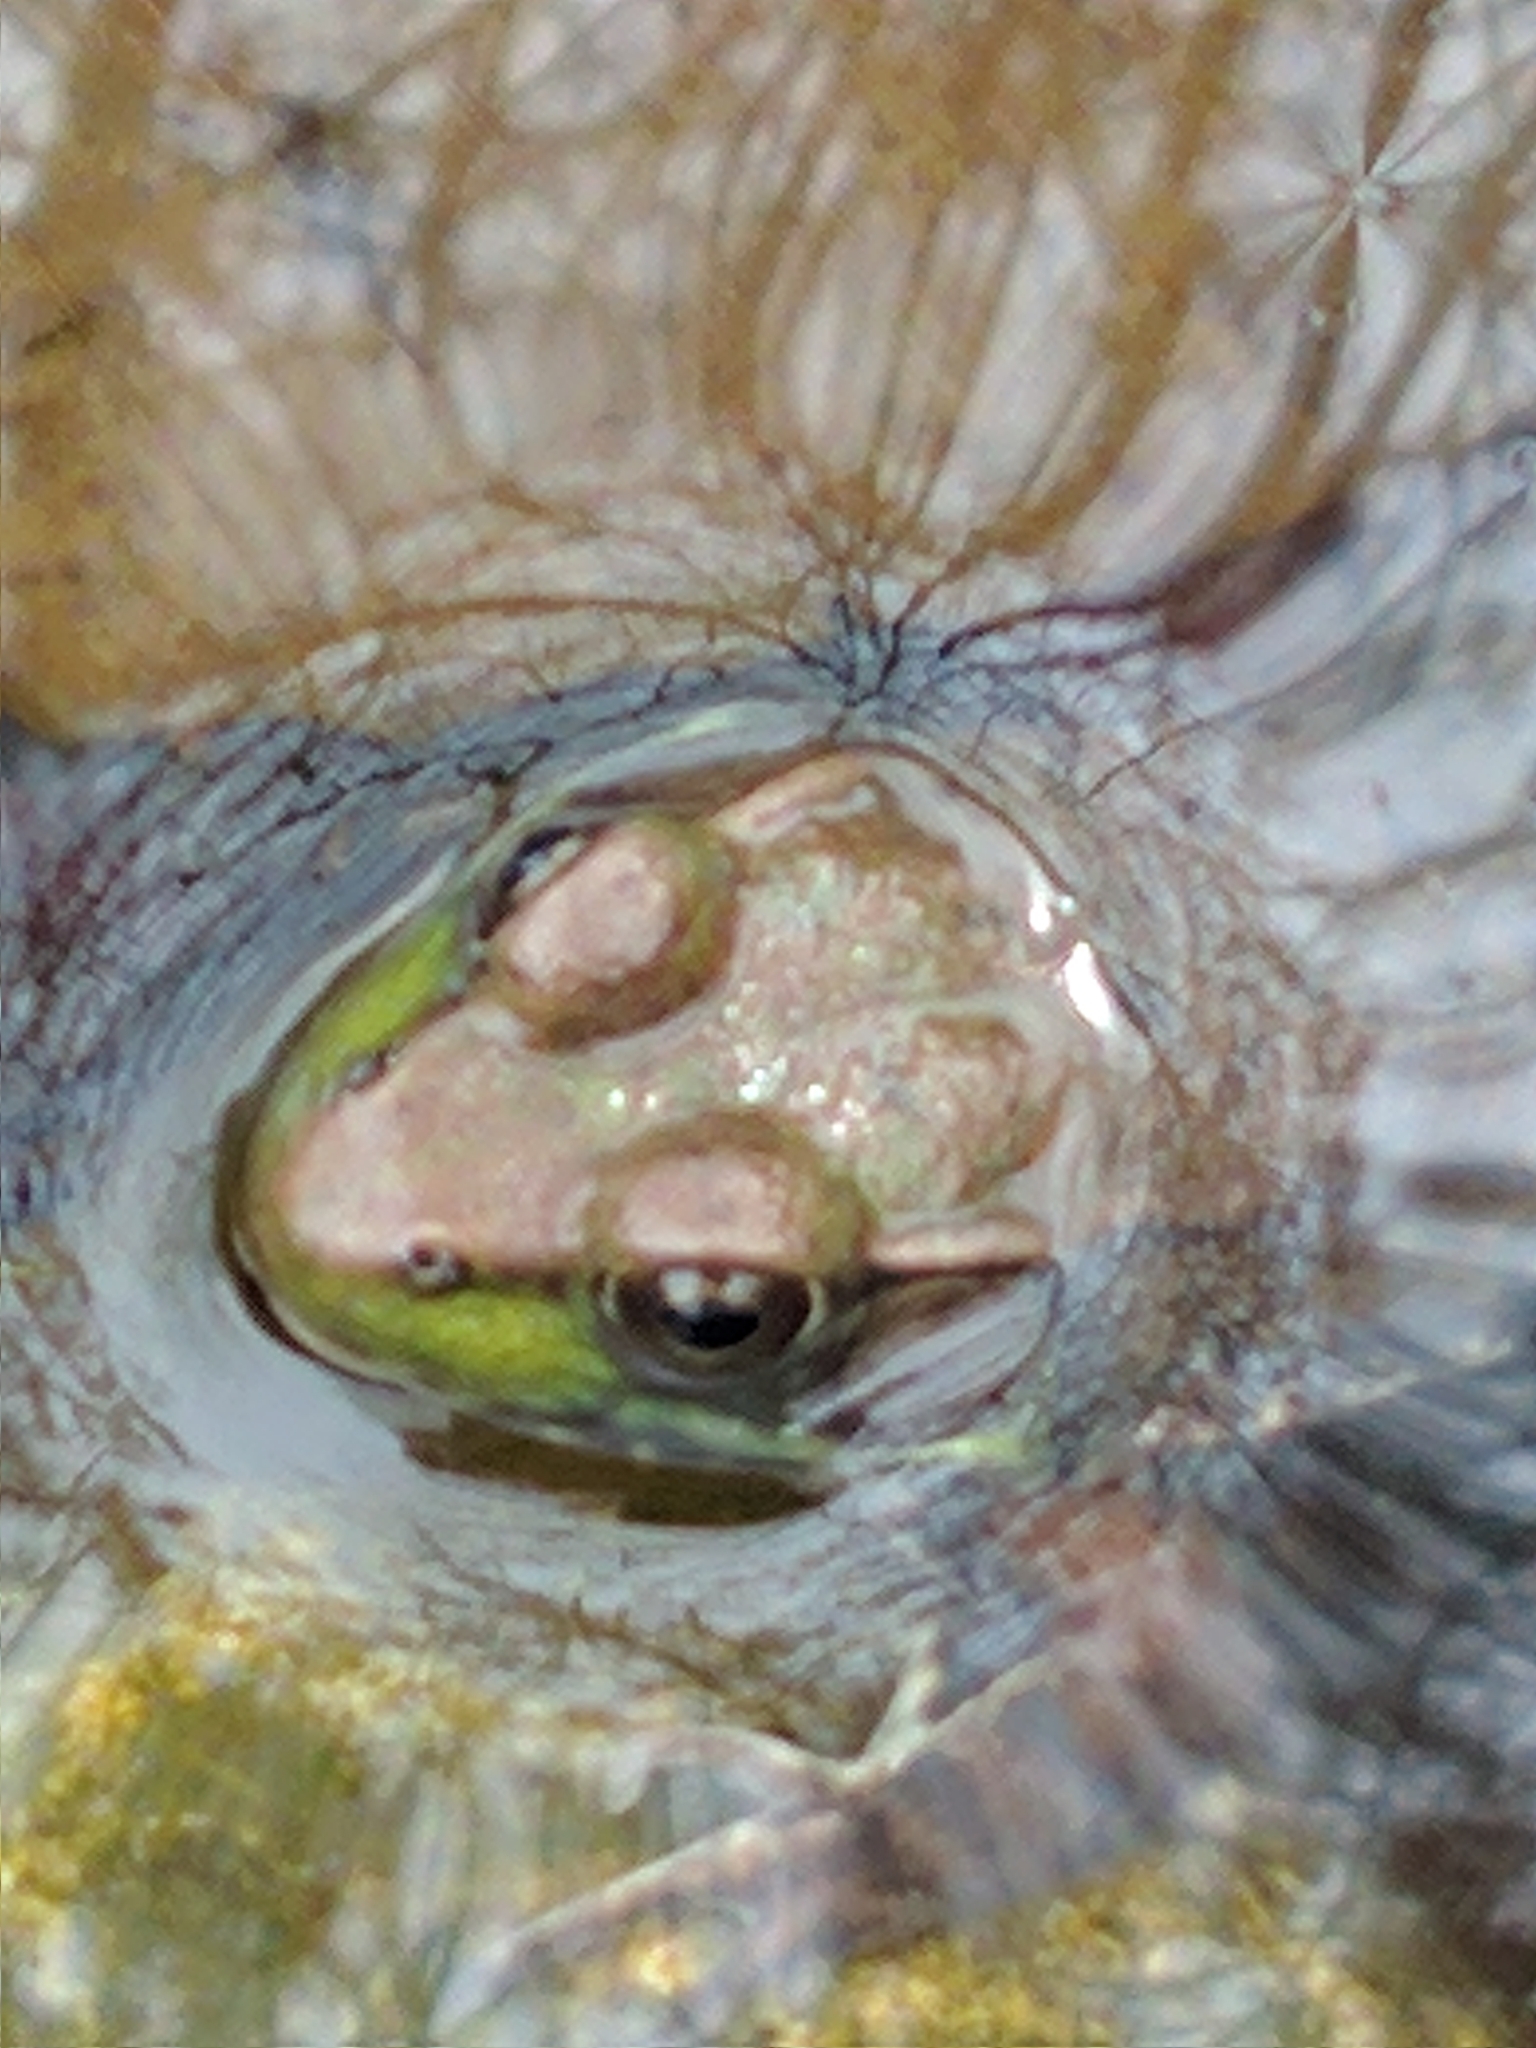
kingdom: Animalia
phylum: Chordata
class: Amphibia
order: Anura
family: Ranidae
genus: Lithobates
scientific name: Lithobates clamitans
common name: Green frog
